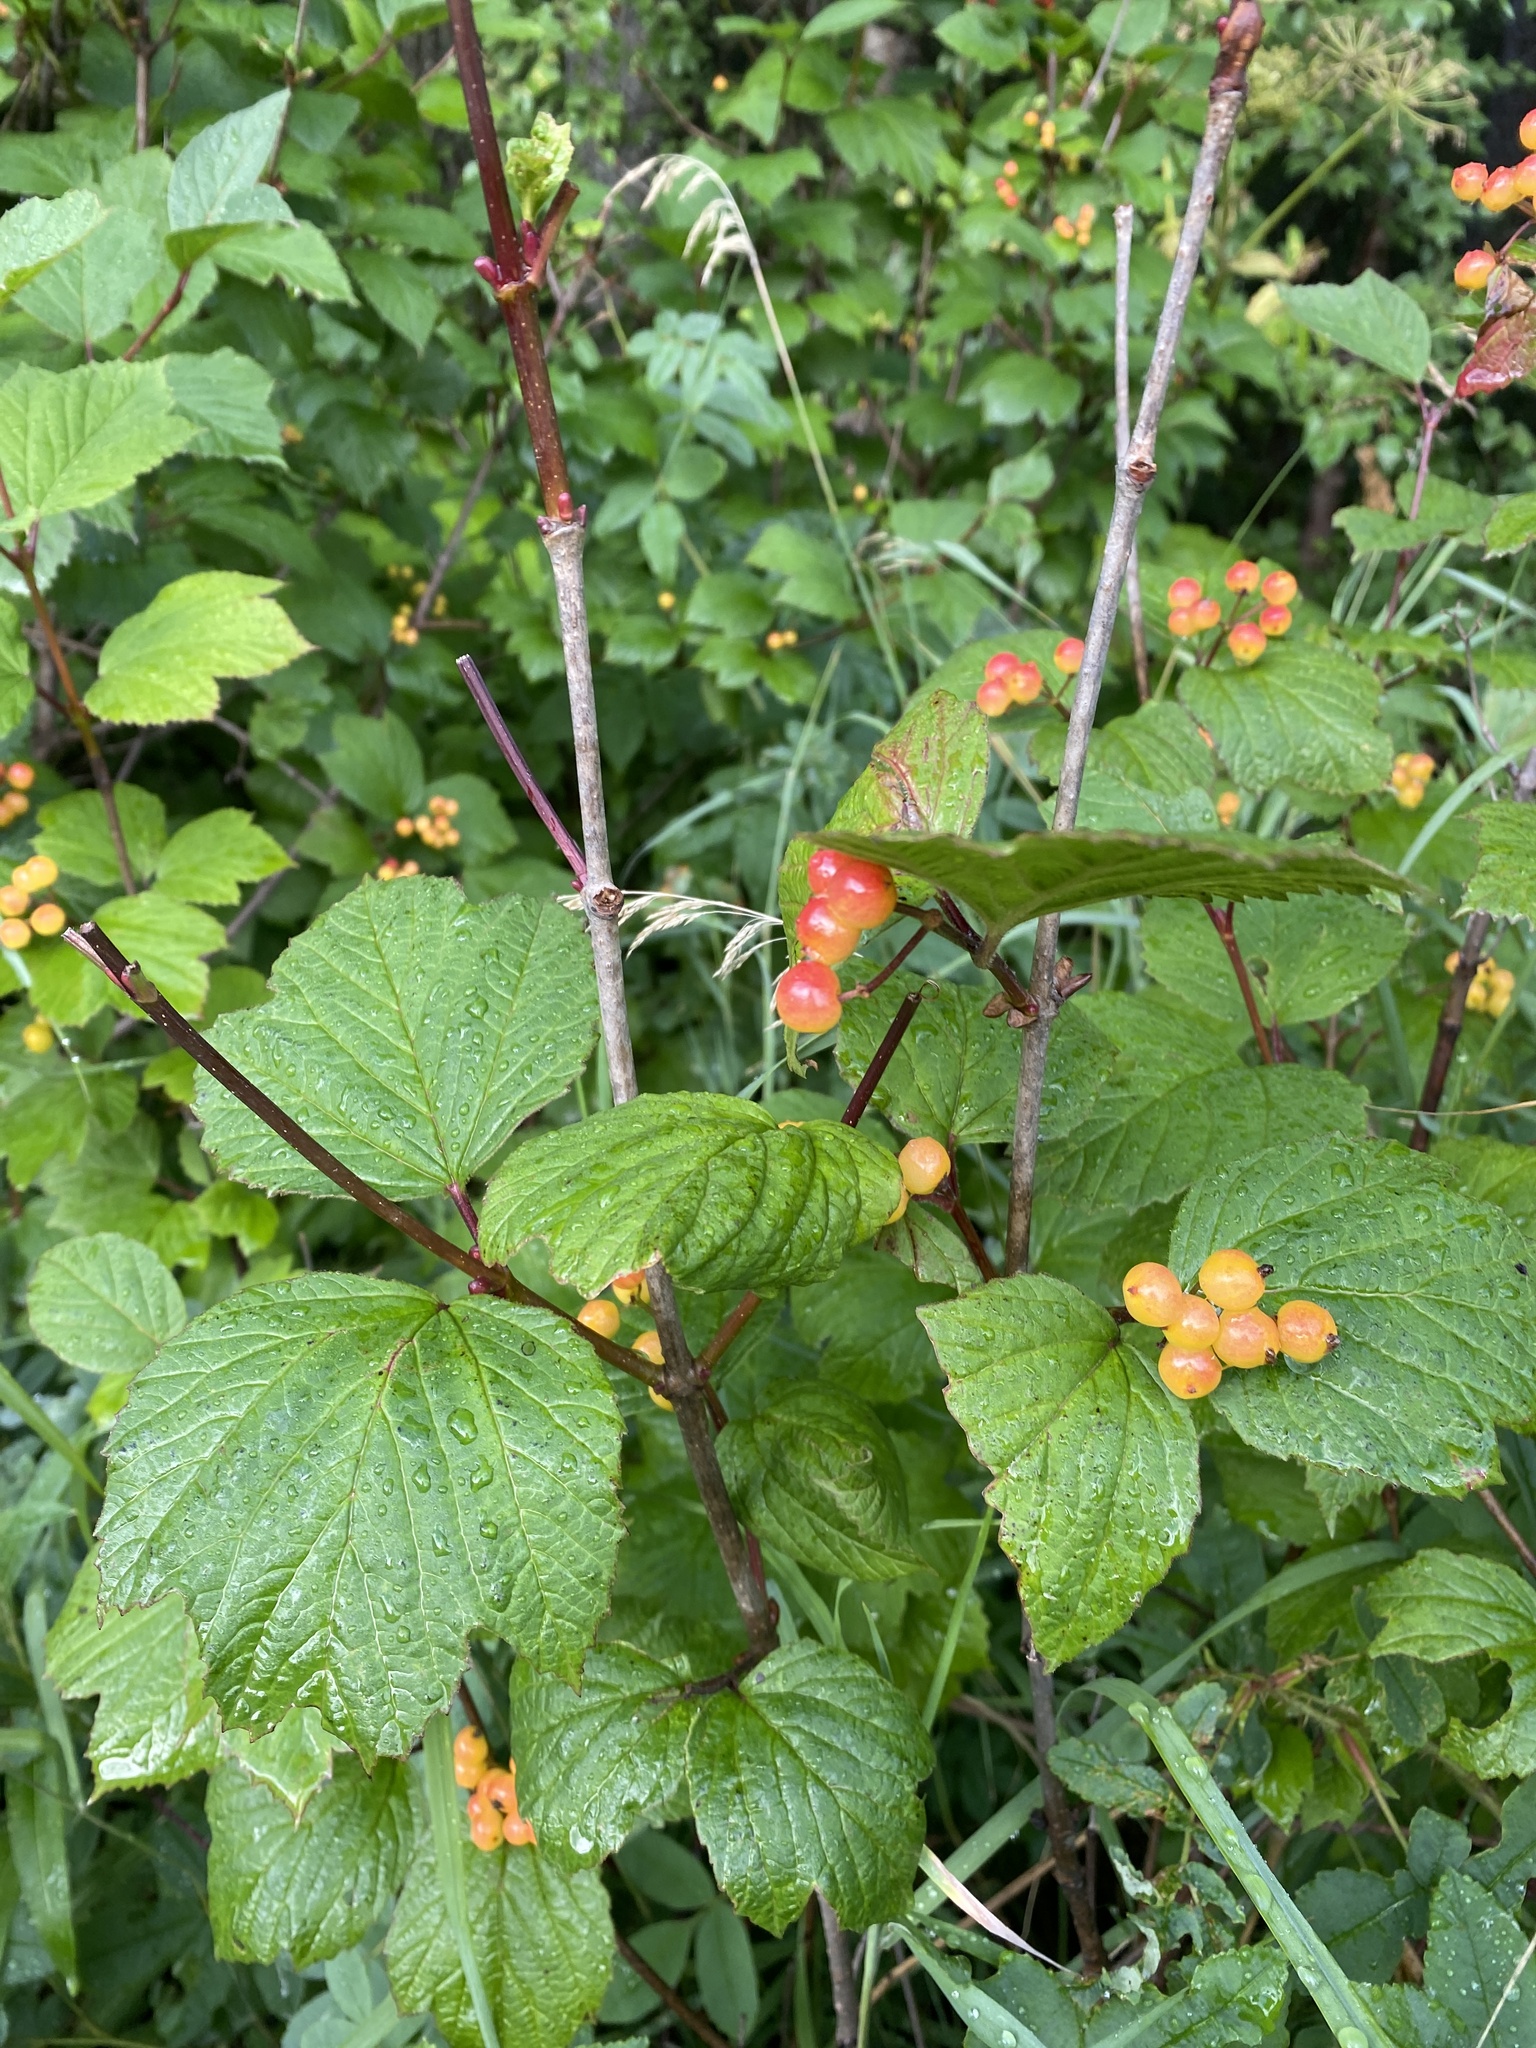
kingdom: Plantae
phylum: Tracheophyta
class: Magnoliopsida
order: Dipsacales
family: Viburnaceae
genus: Viburnum
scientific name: Viburnum edule
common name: Mooseberry
